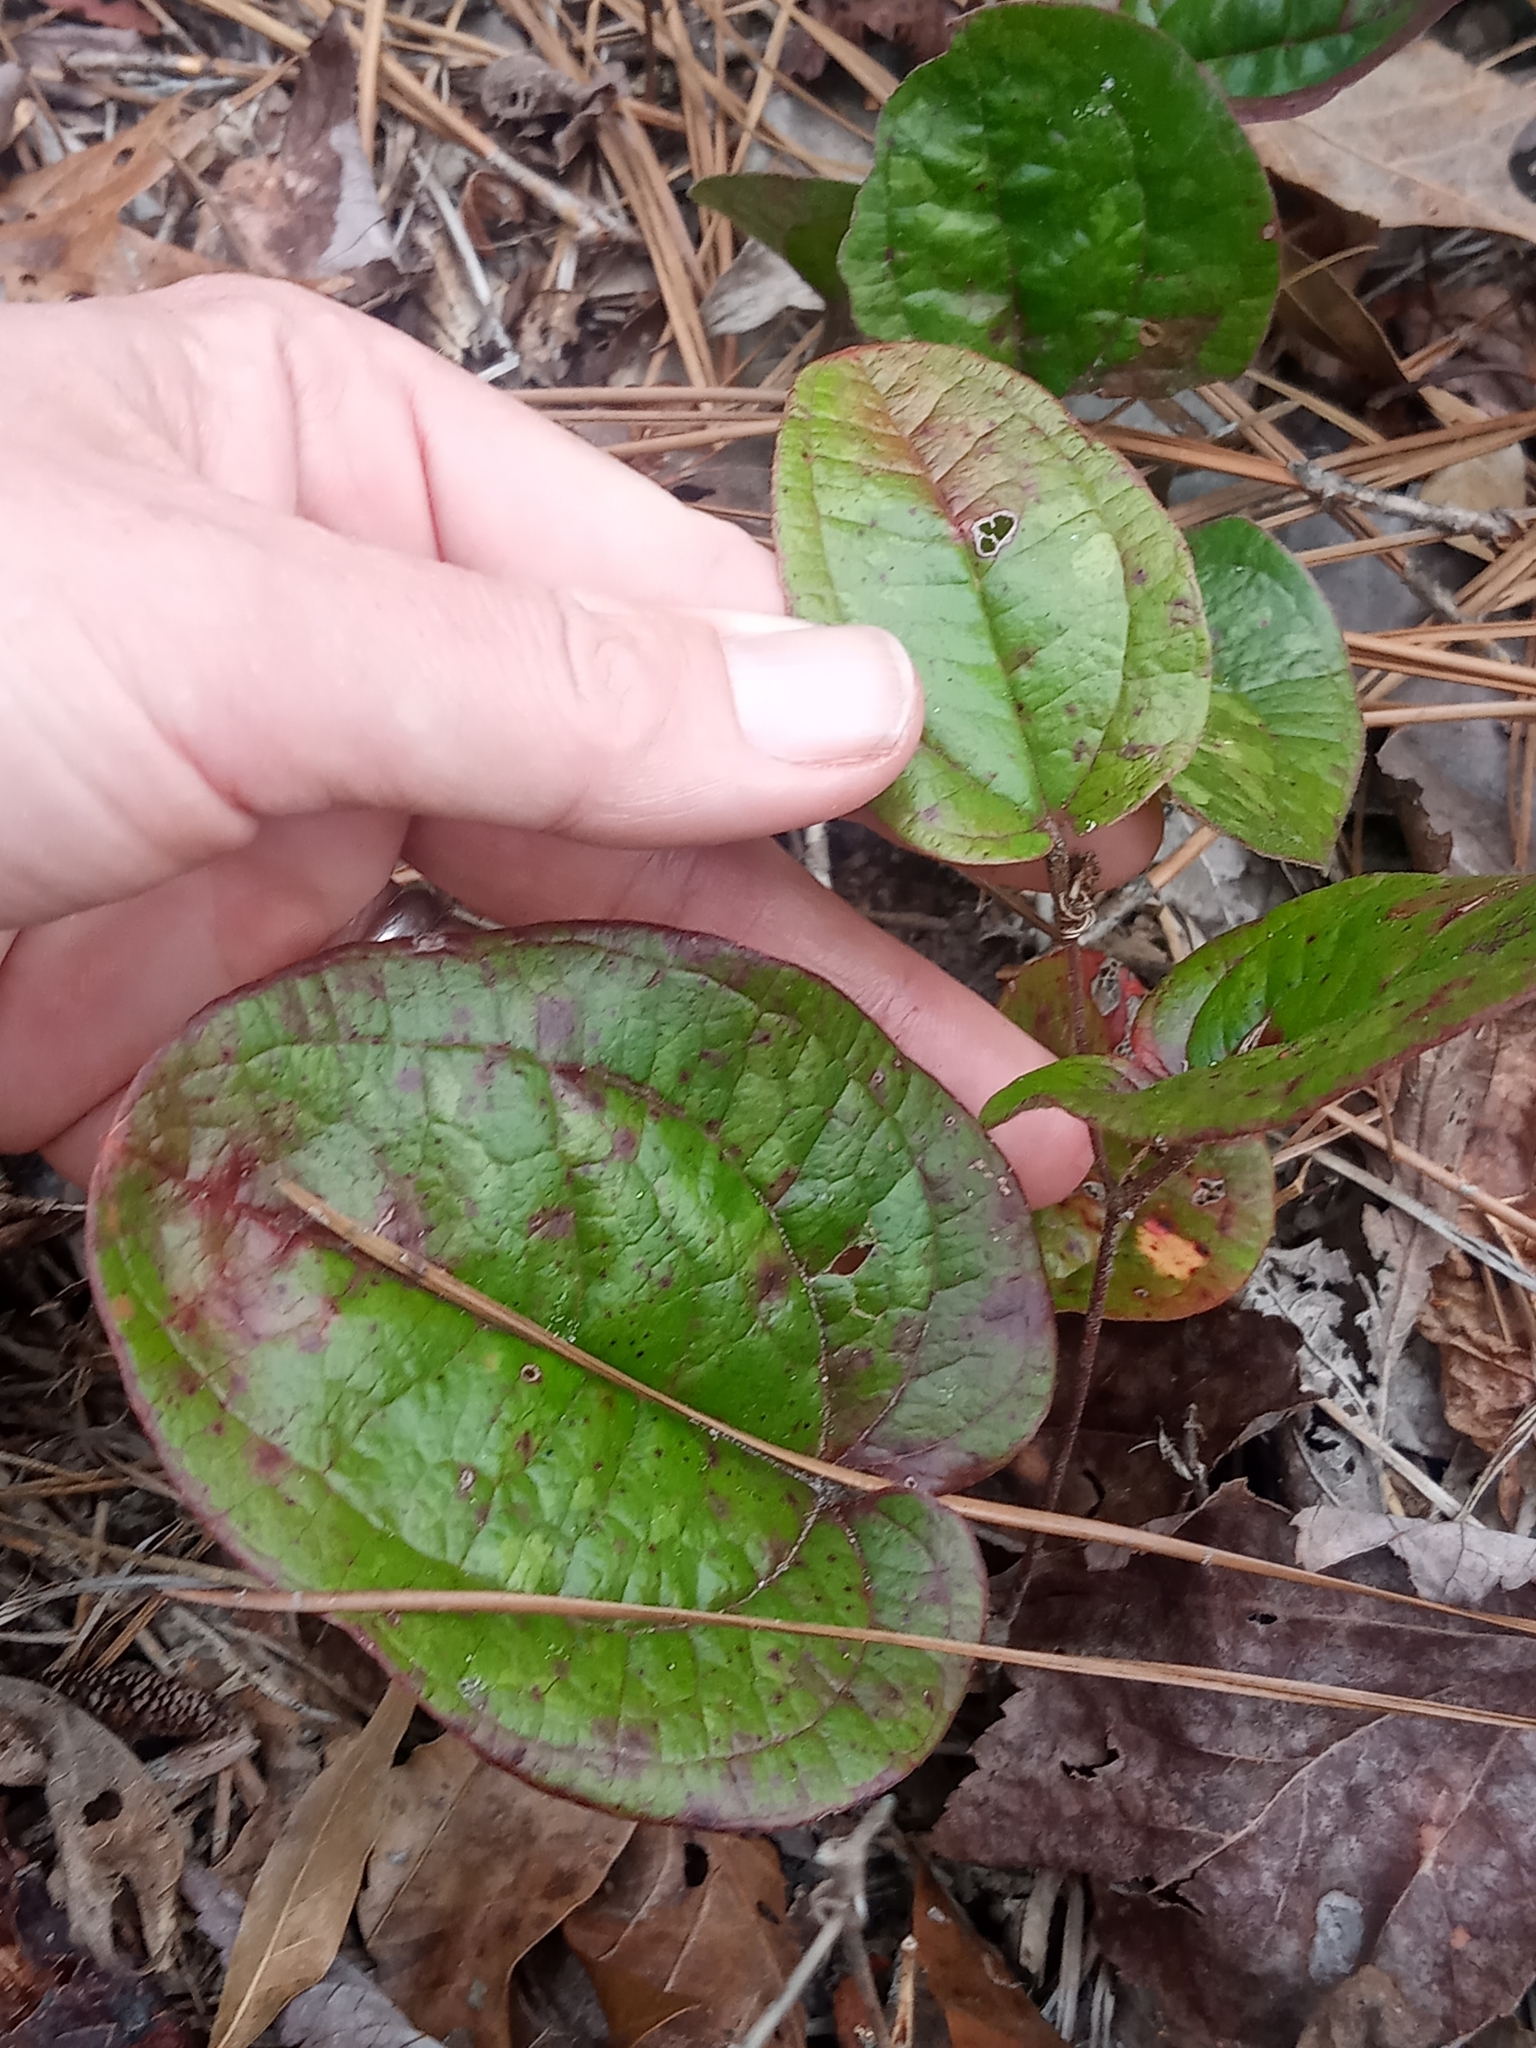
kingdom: Plantae
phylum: Tracheophyta
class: Liliopsida
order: Liliales
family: Smilacaceae
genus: Smilax
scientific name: Smilax pumila
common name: Sarsaparilla-vine
